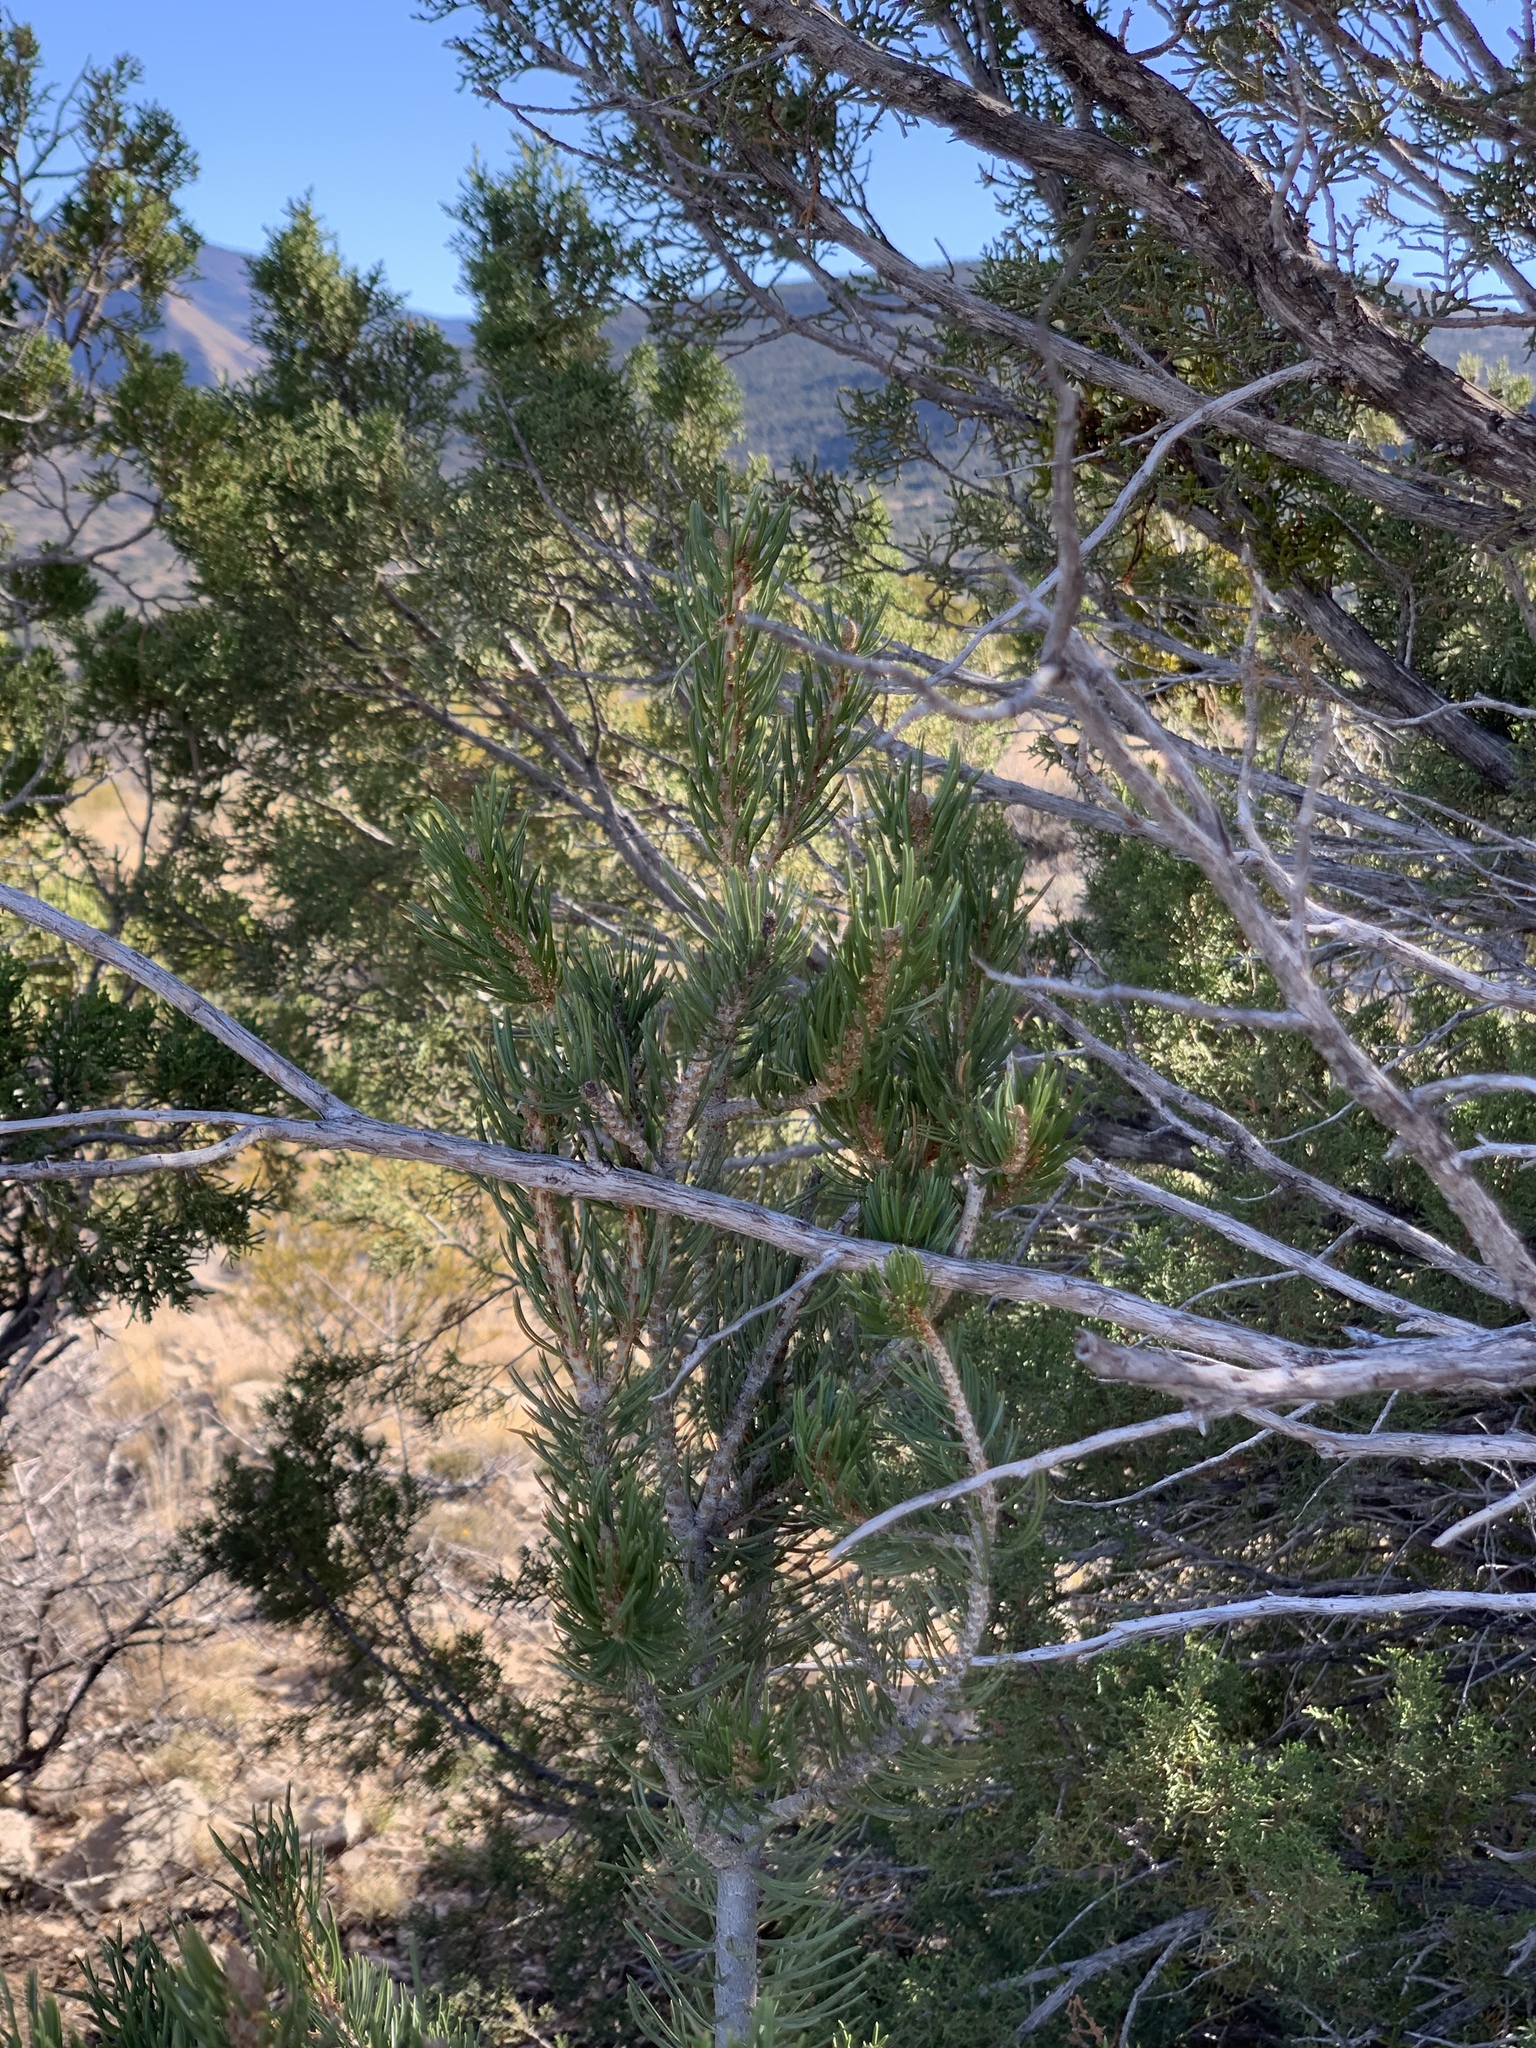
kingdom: Plantae
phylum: Tracheophyta
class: Pinopsida
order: Pinales
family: Pinaceae
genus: Pinus
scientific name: Pinus edulis
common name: Colorado pinyon
